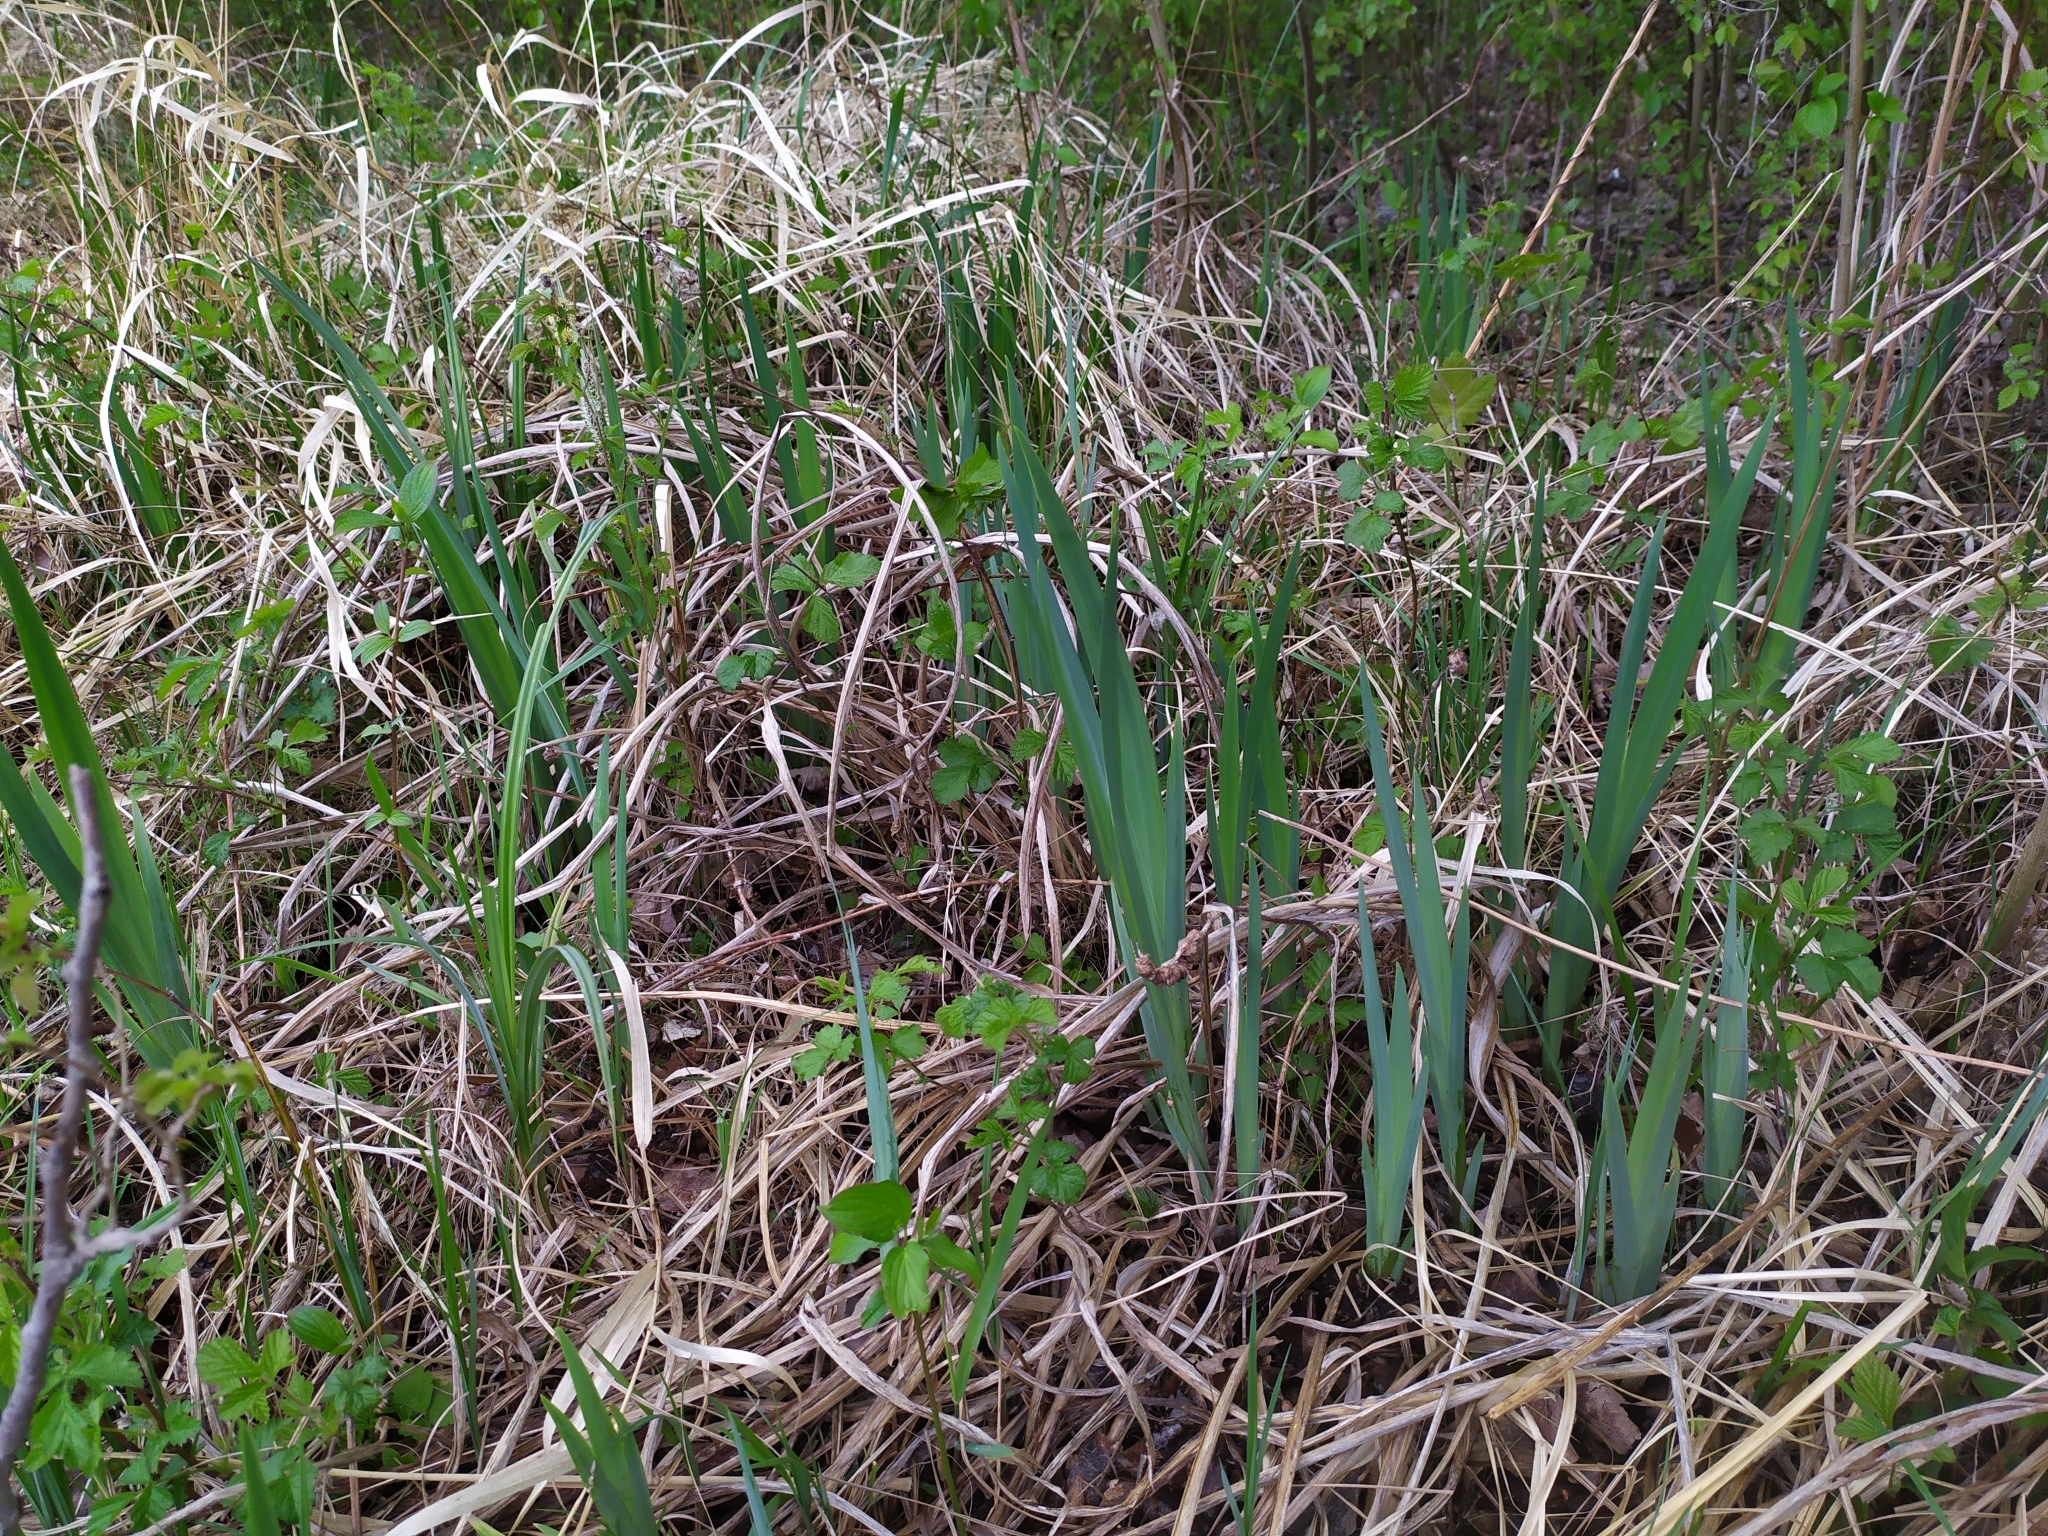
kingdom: Plantae
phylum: Tracheophyta
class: Liliopsida
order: Asparagales
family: Iridaceae
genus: Iris
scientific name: Iris pseudacorus
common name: Yellow flag
